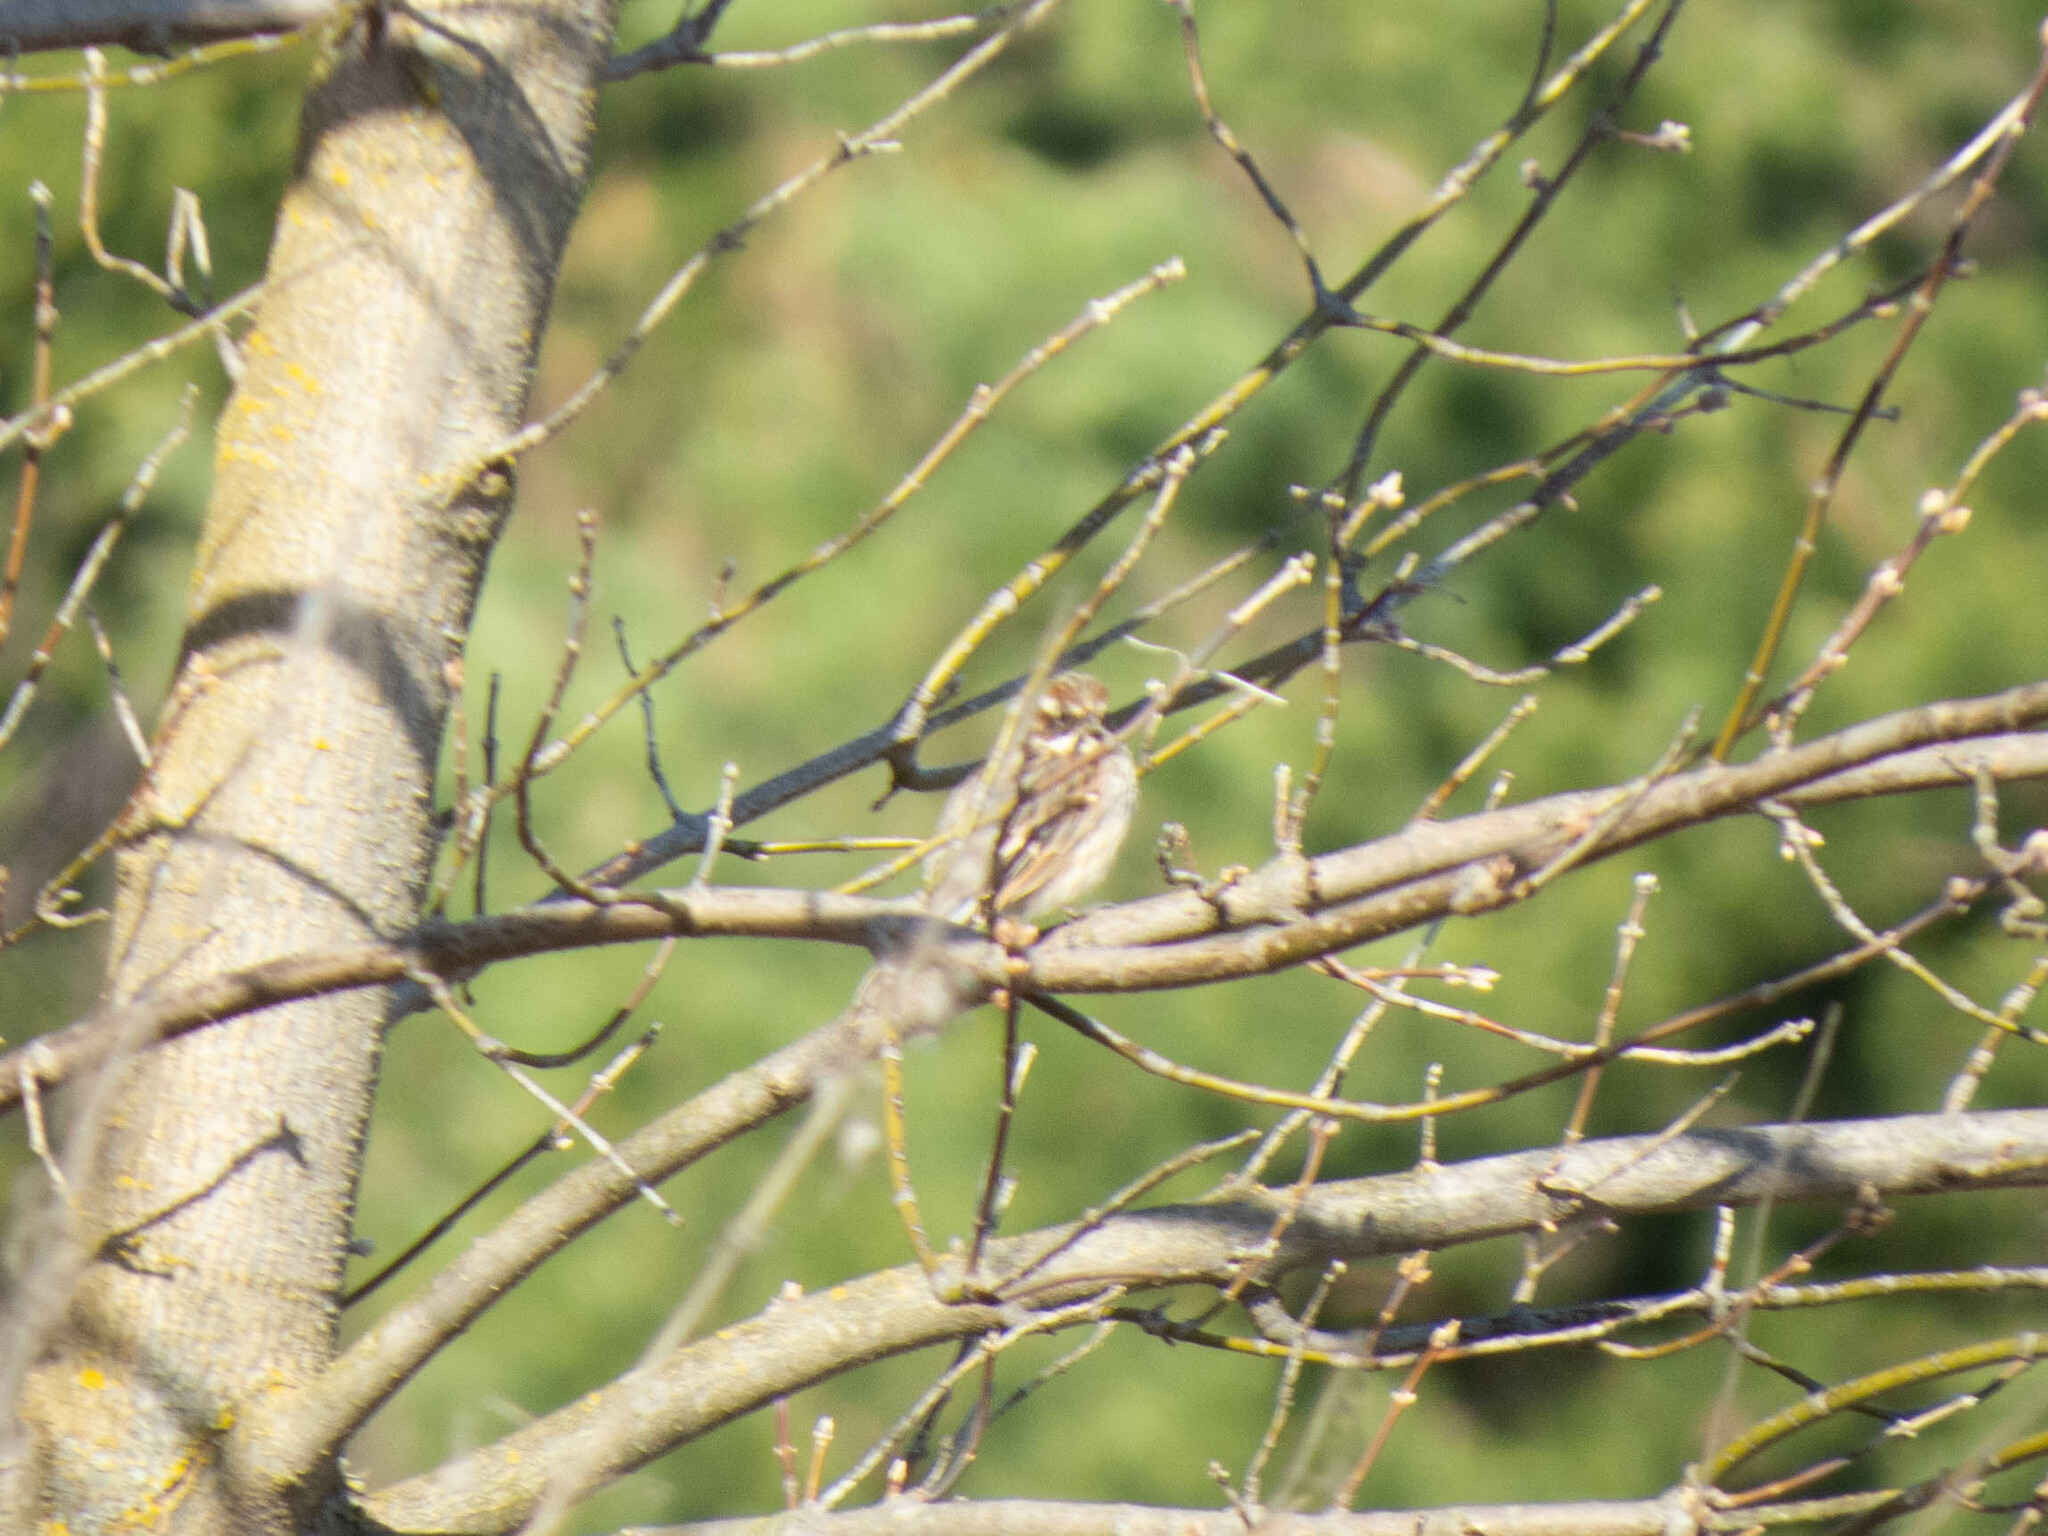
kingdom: Animalia
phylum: Chordata
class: Aves
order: Passeriformes
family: Emberizidae
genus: Emberiza
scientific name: Emberiza schoeniclus
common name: Reed bunting
